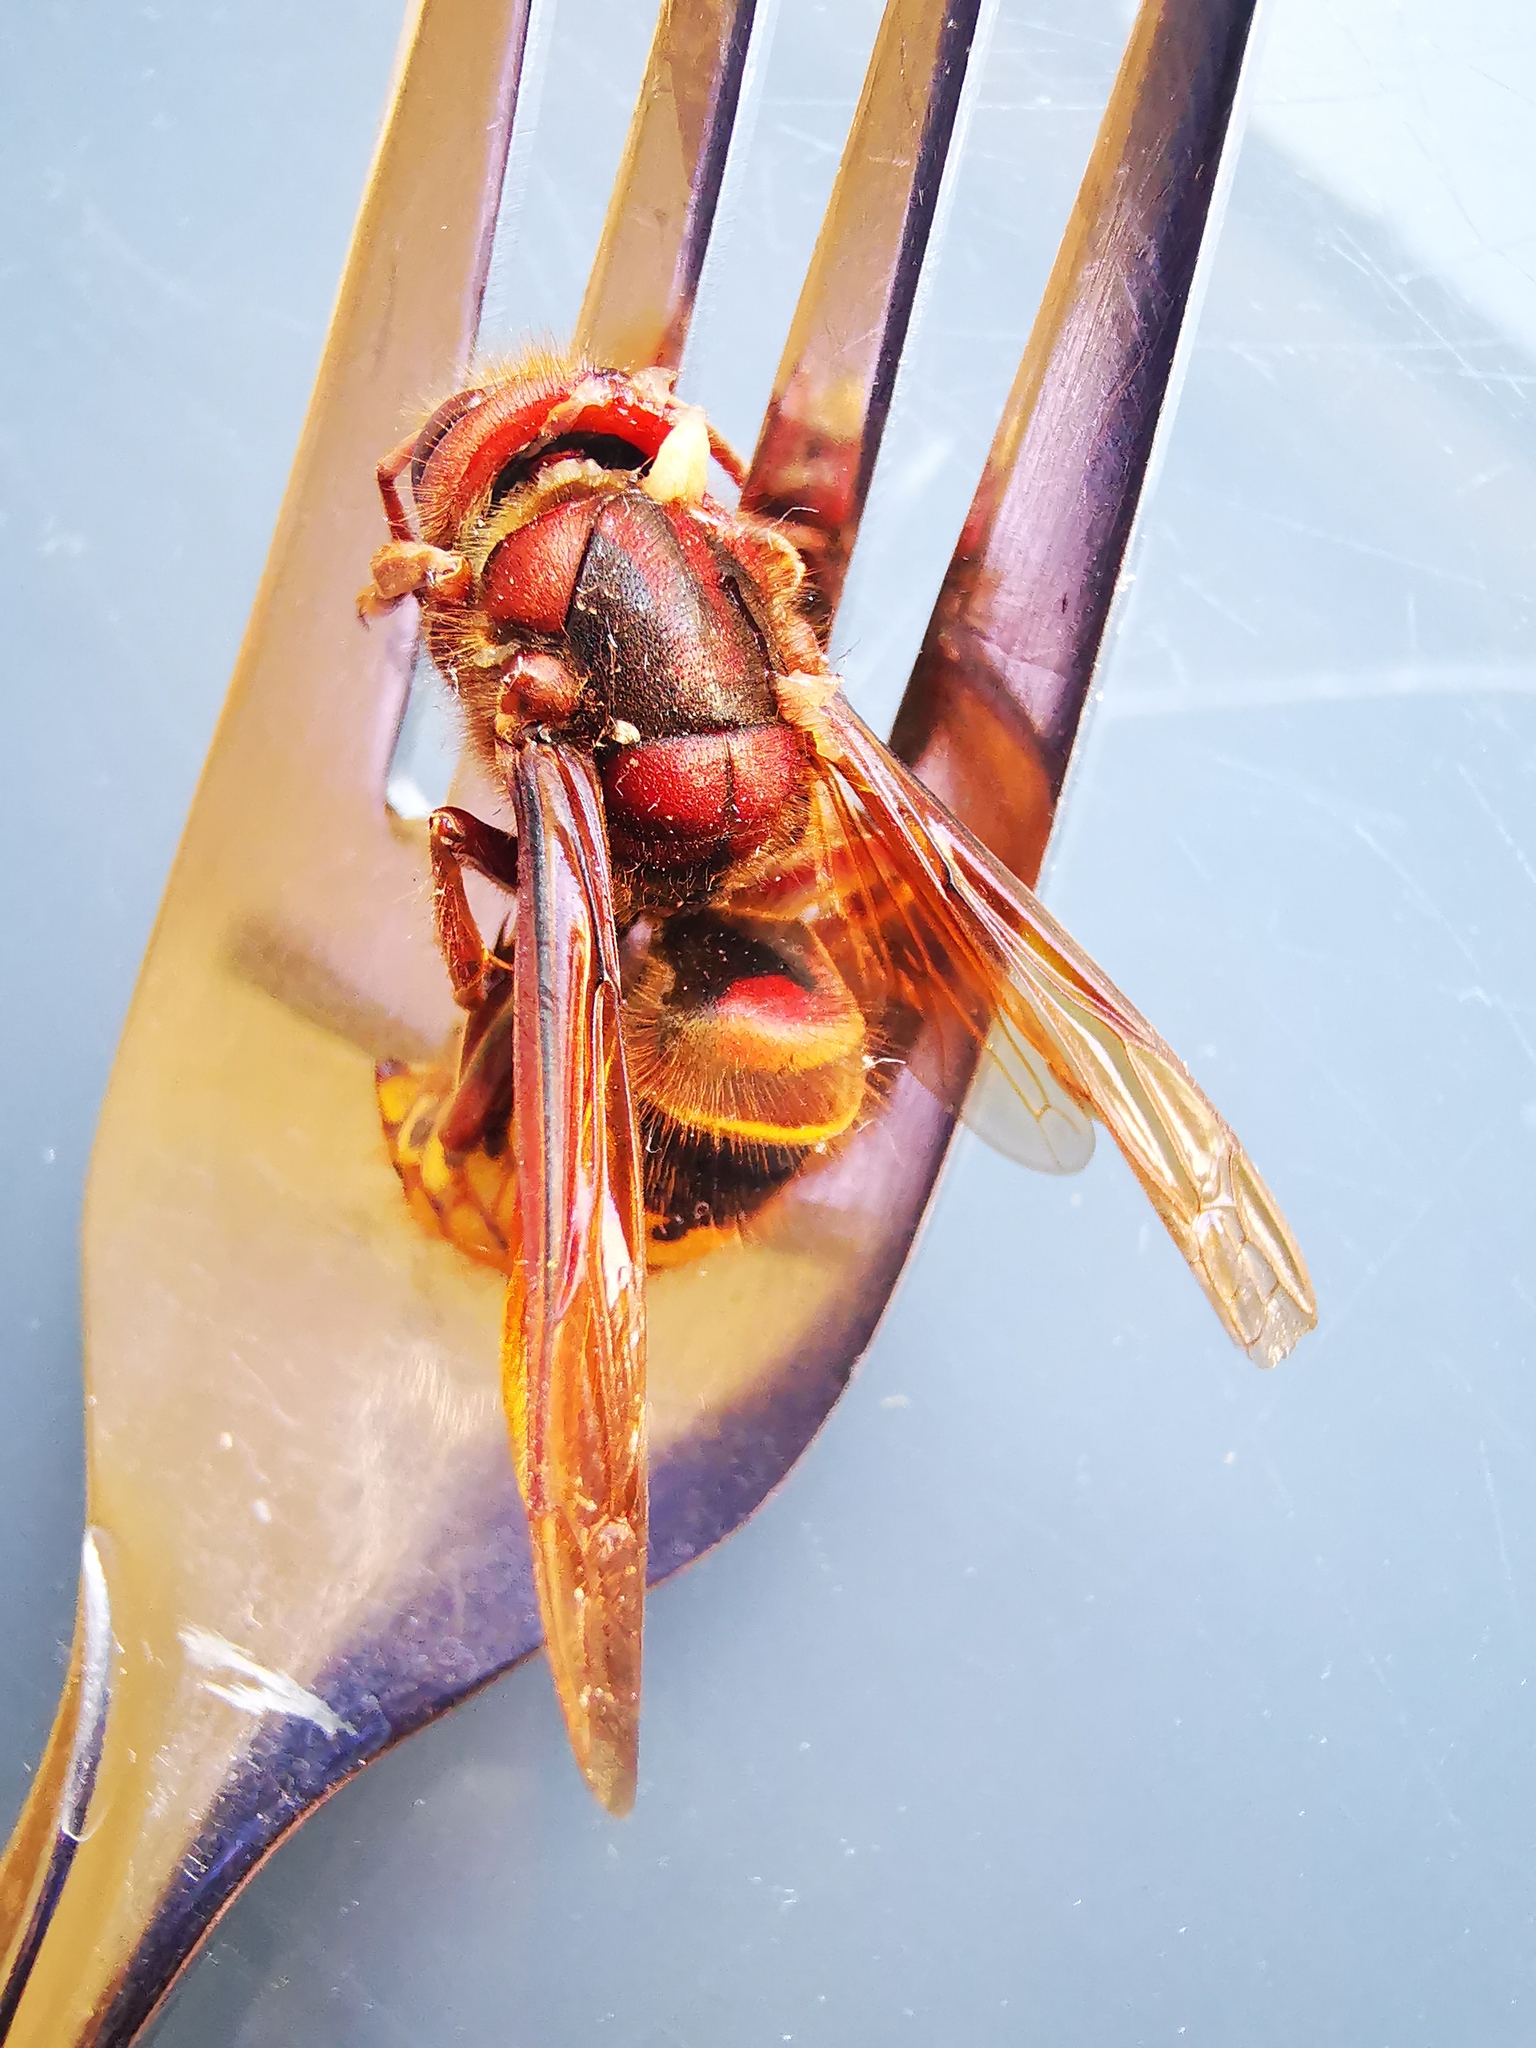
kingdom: Animalia
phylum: Arthropoda
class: Insecta
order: Hymenoptera
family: Vespidae
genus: Vespa
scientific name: Vespa crabro
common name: Hornet
